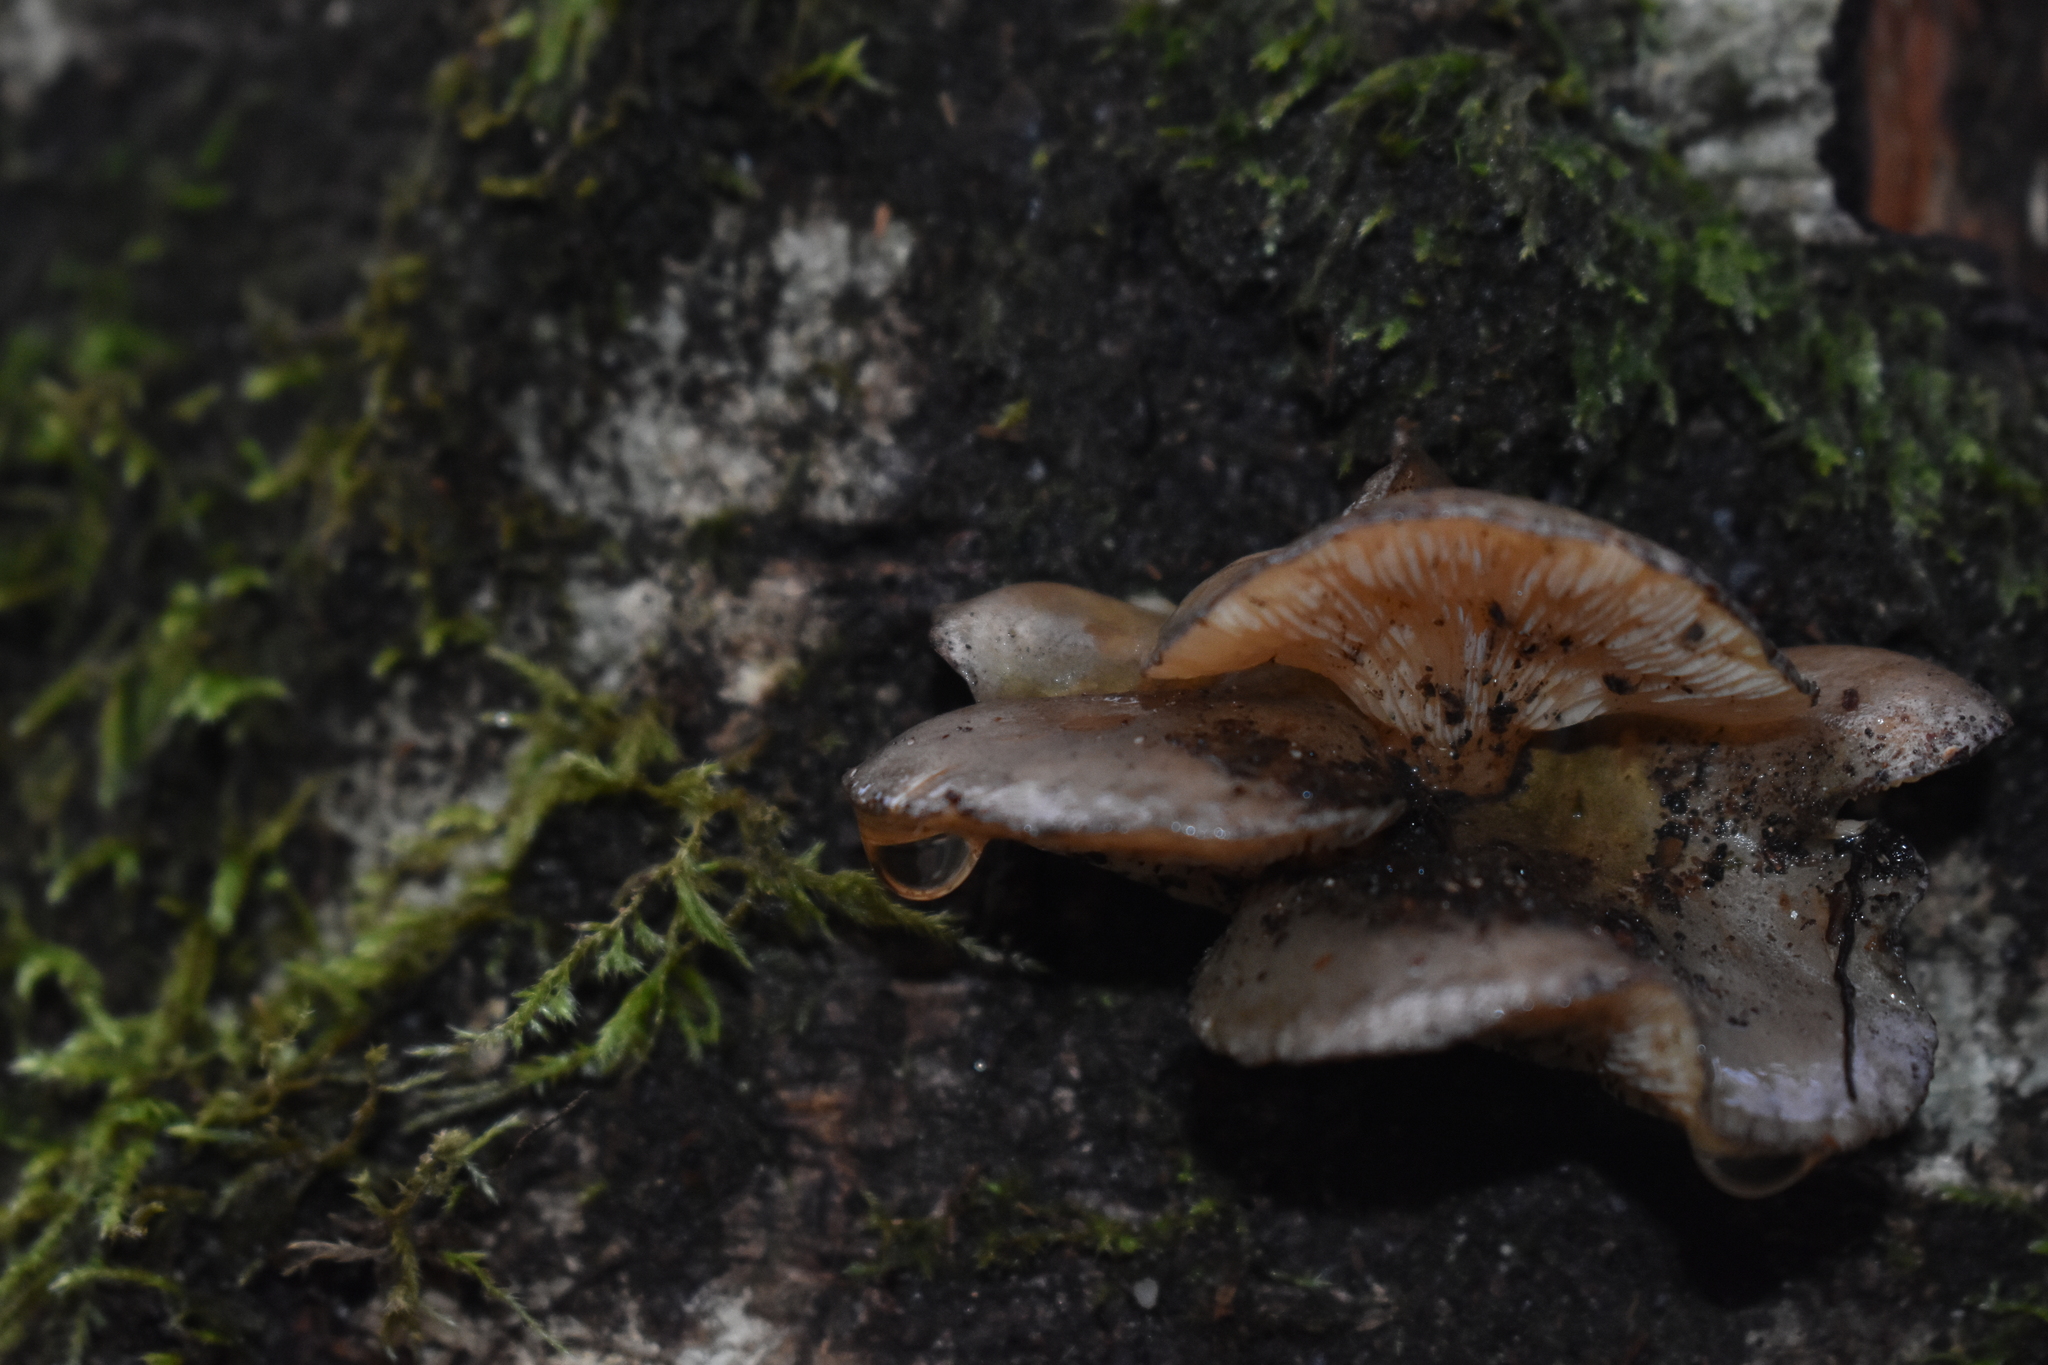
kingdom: Fungi
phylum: Basidiomycota
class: Agaricomycetes
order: Agaricales
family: Sarcomyxaceae
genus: Sarcomyxa
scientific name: Sarcomyxa serotina
